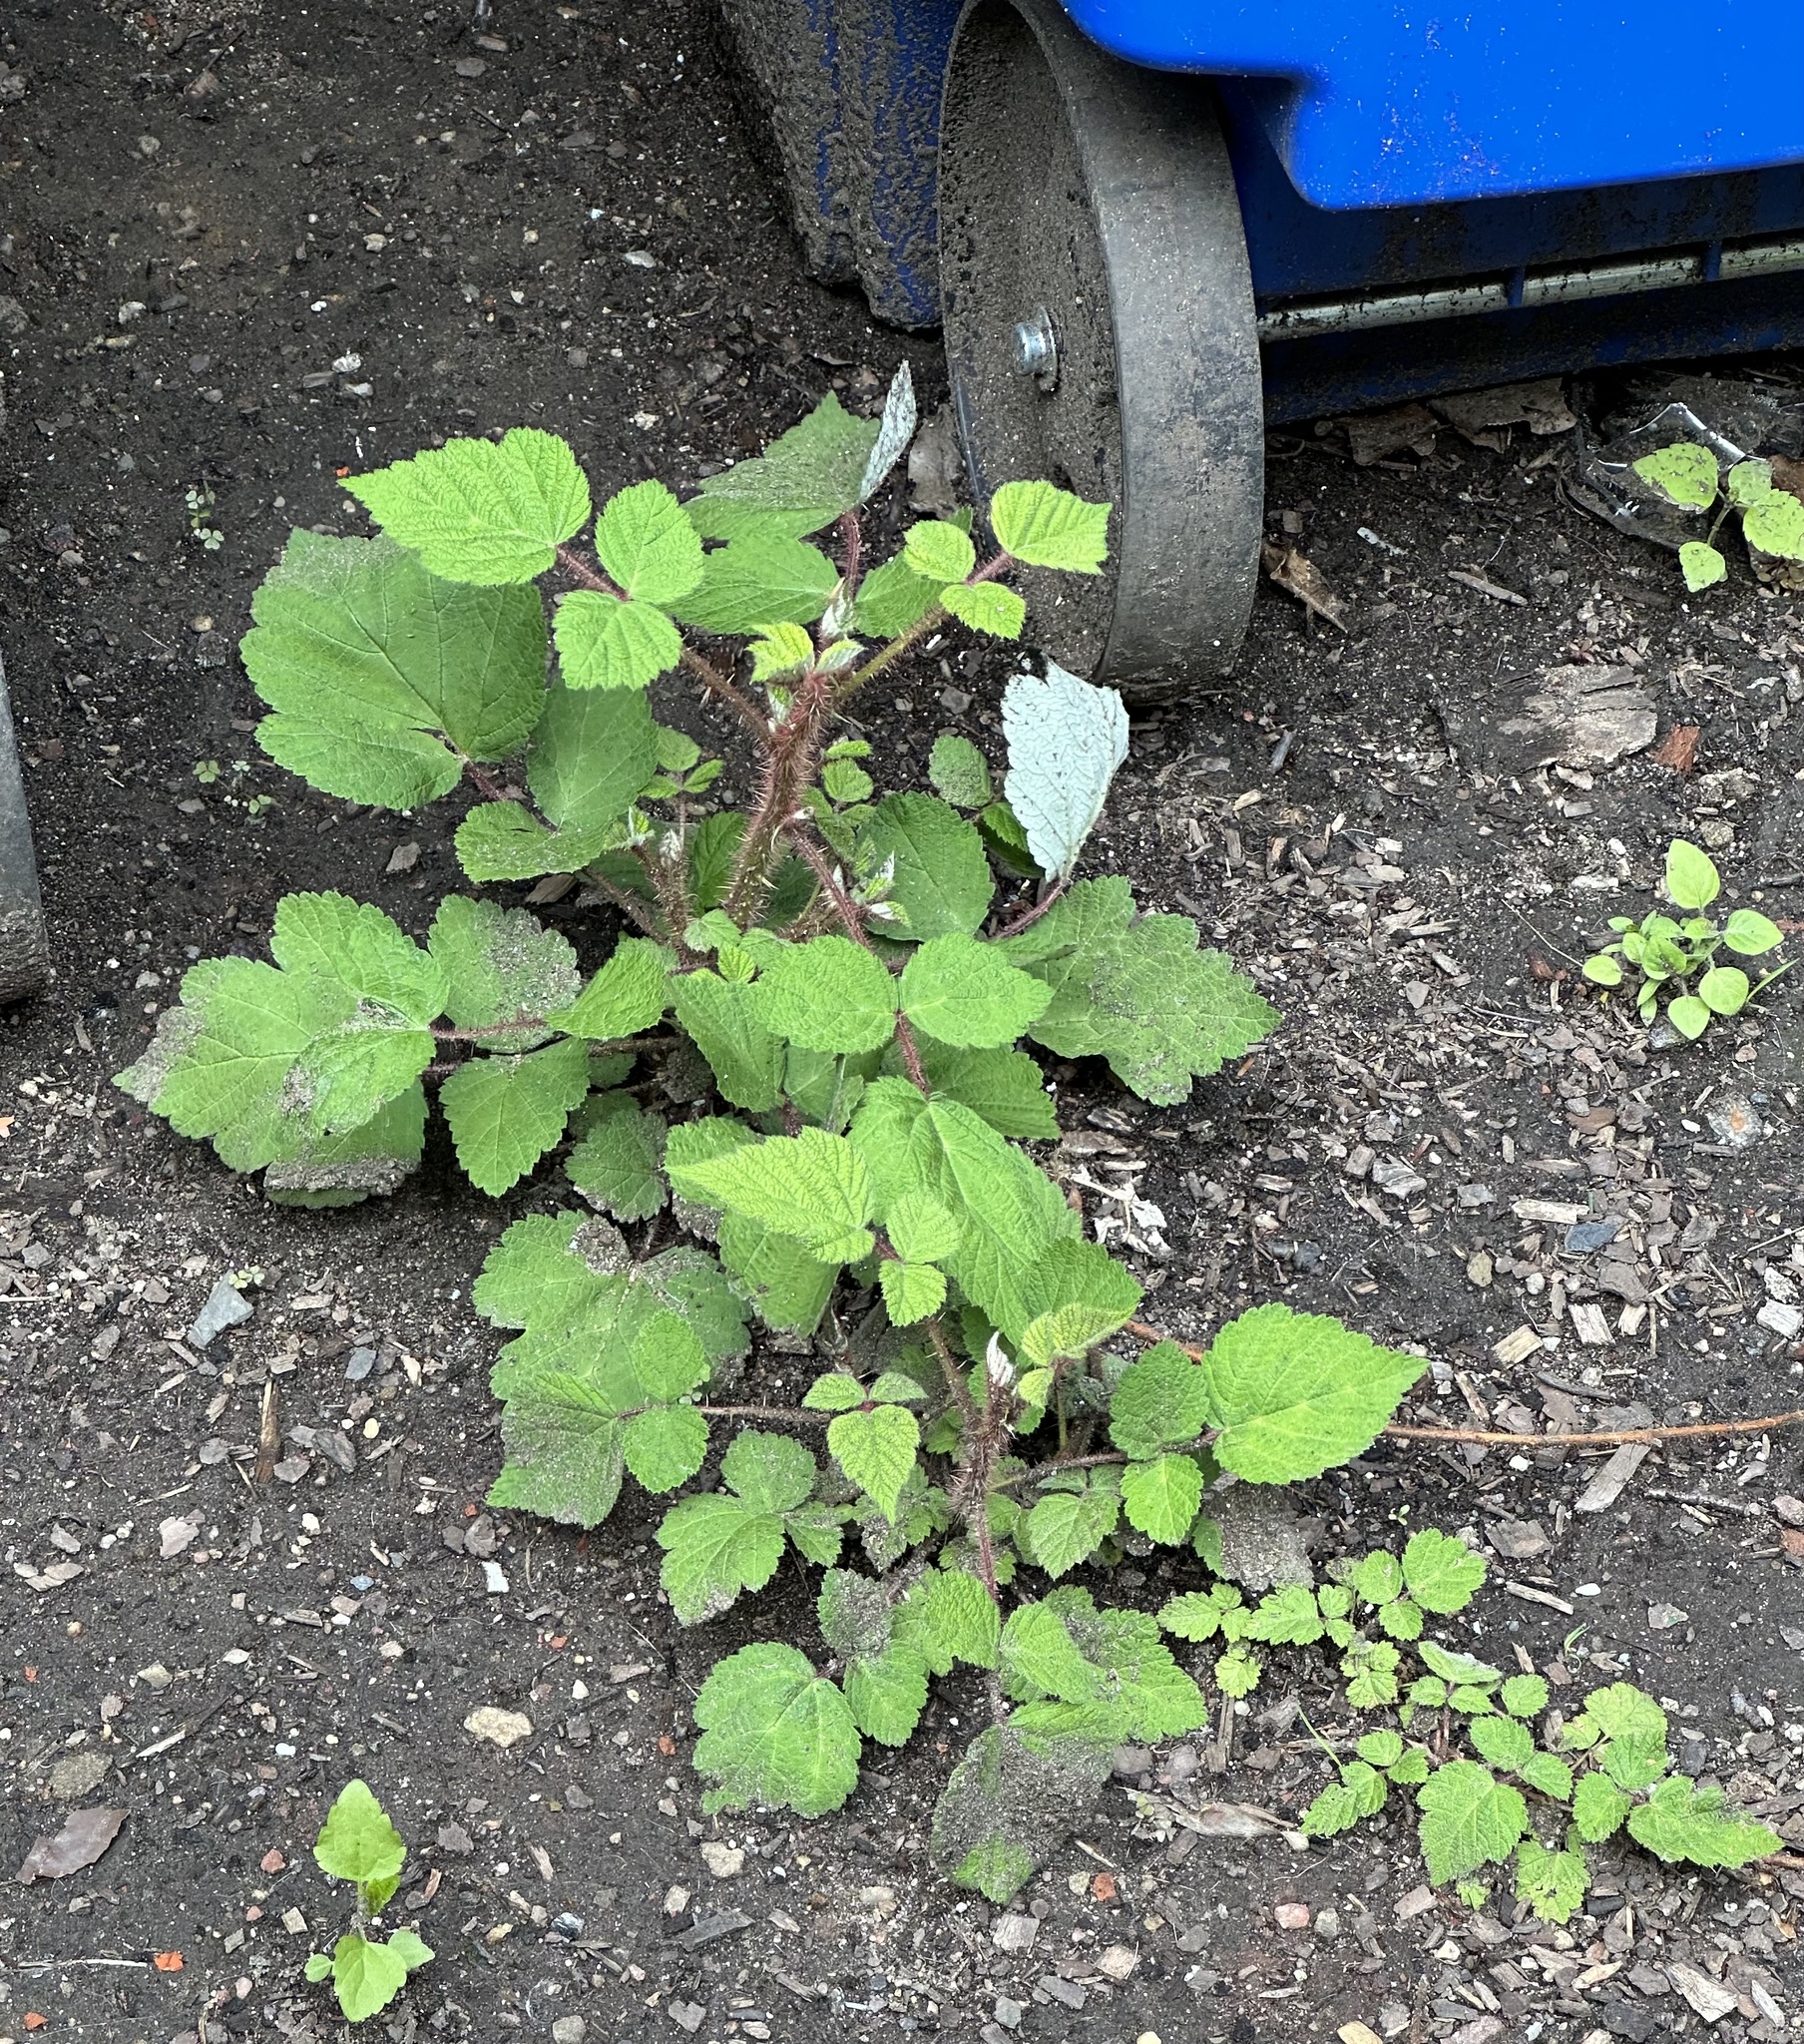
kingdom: Plantae
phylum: Tracheophyta
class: Magnoliopsida
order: Rosales
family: Rosaceae
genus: Rubus
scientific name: Rubus phoenicolasius
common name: Japanese wineberry
